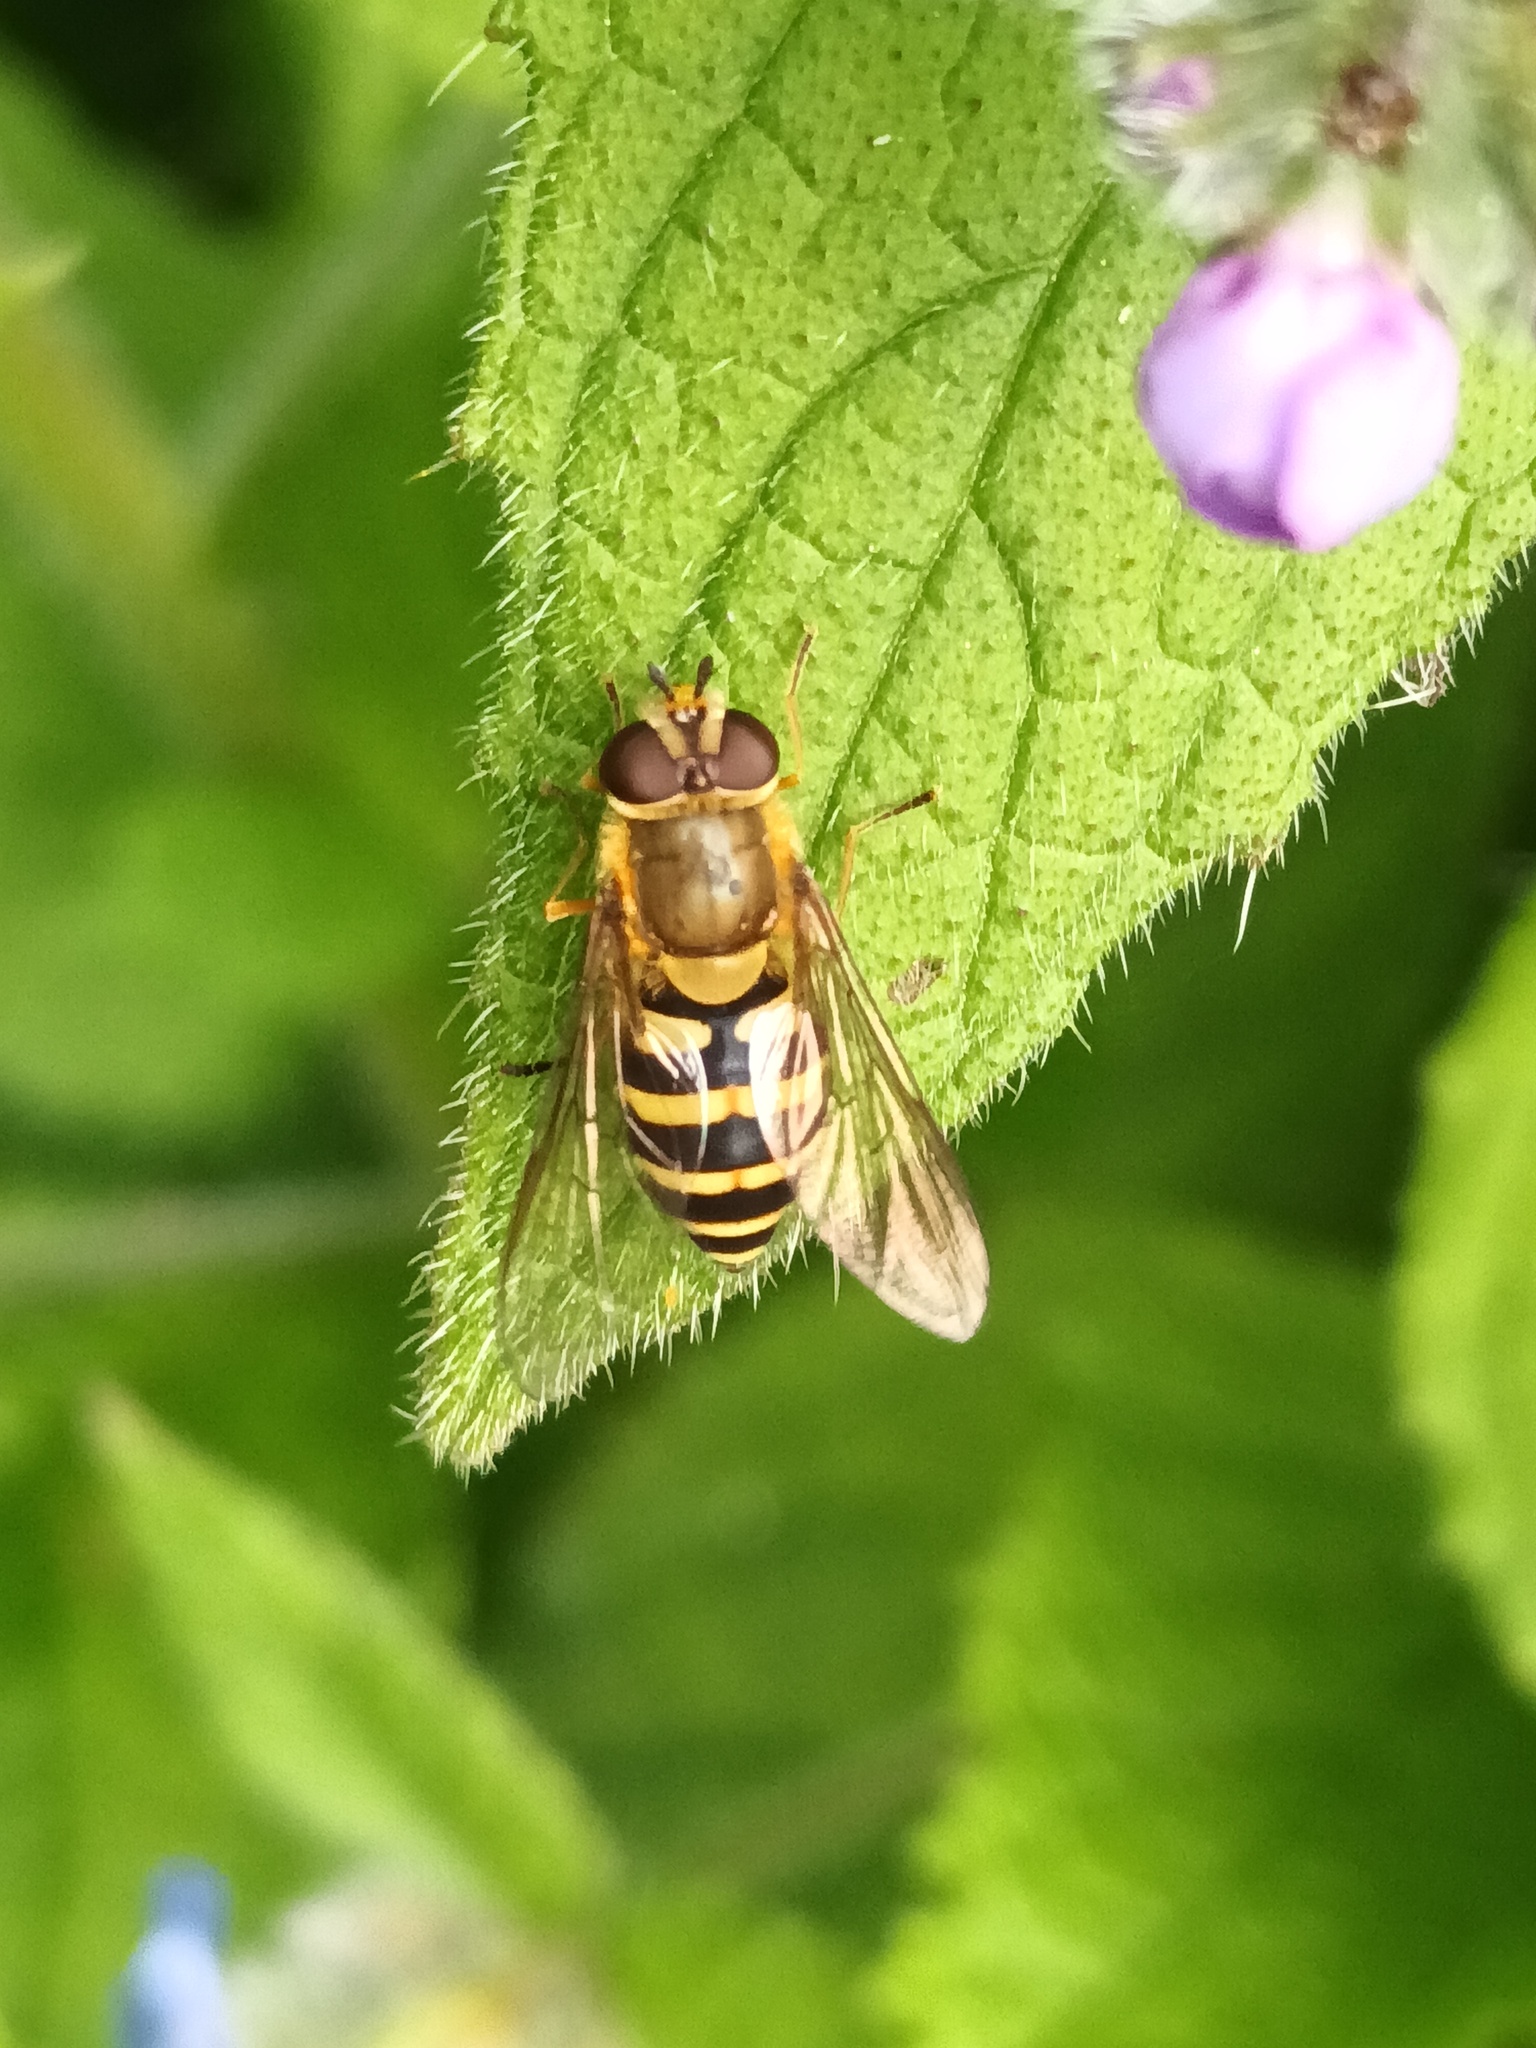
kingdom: Animalia
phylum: Arthropoda
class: Insecta
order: Diptera
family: Syrphidae
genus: Syrphus
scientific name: Syrphus
